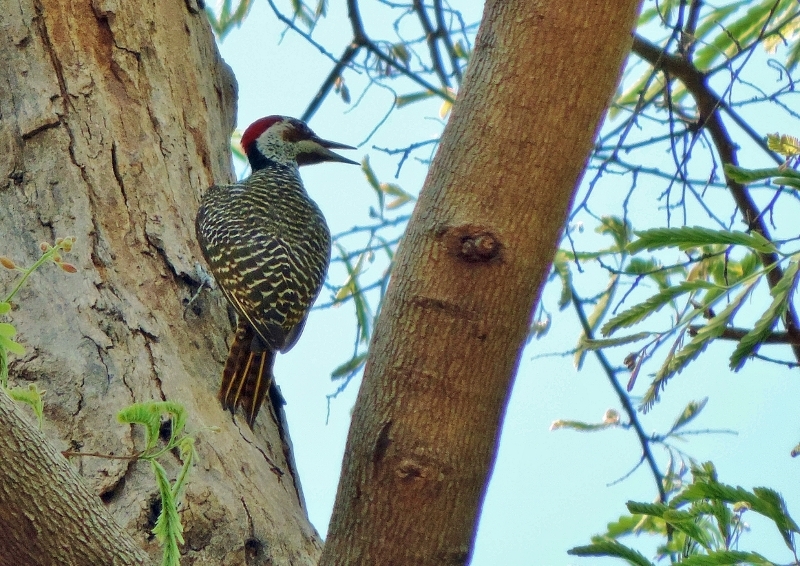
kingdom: Animalia
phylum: Chordata
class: Aves
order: Piciformes
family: Picidae
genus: Campethera
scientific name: Campethera bennettii
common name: Bennett's woodpecker
